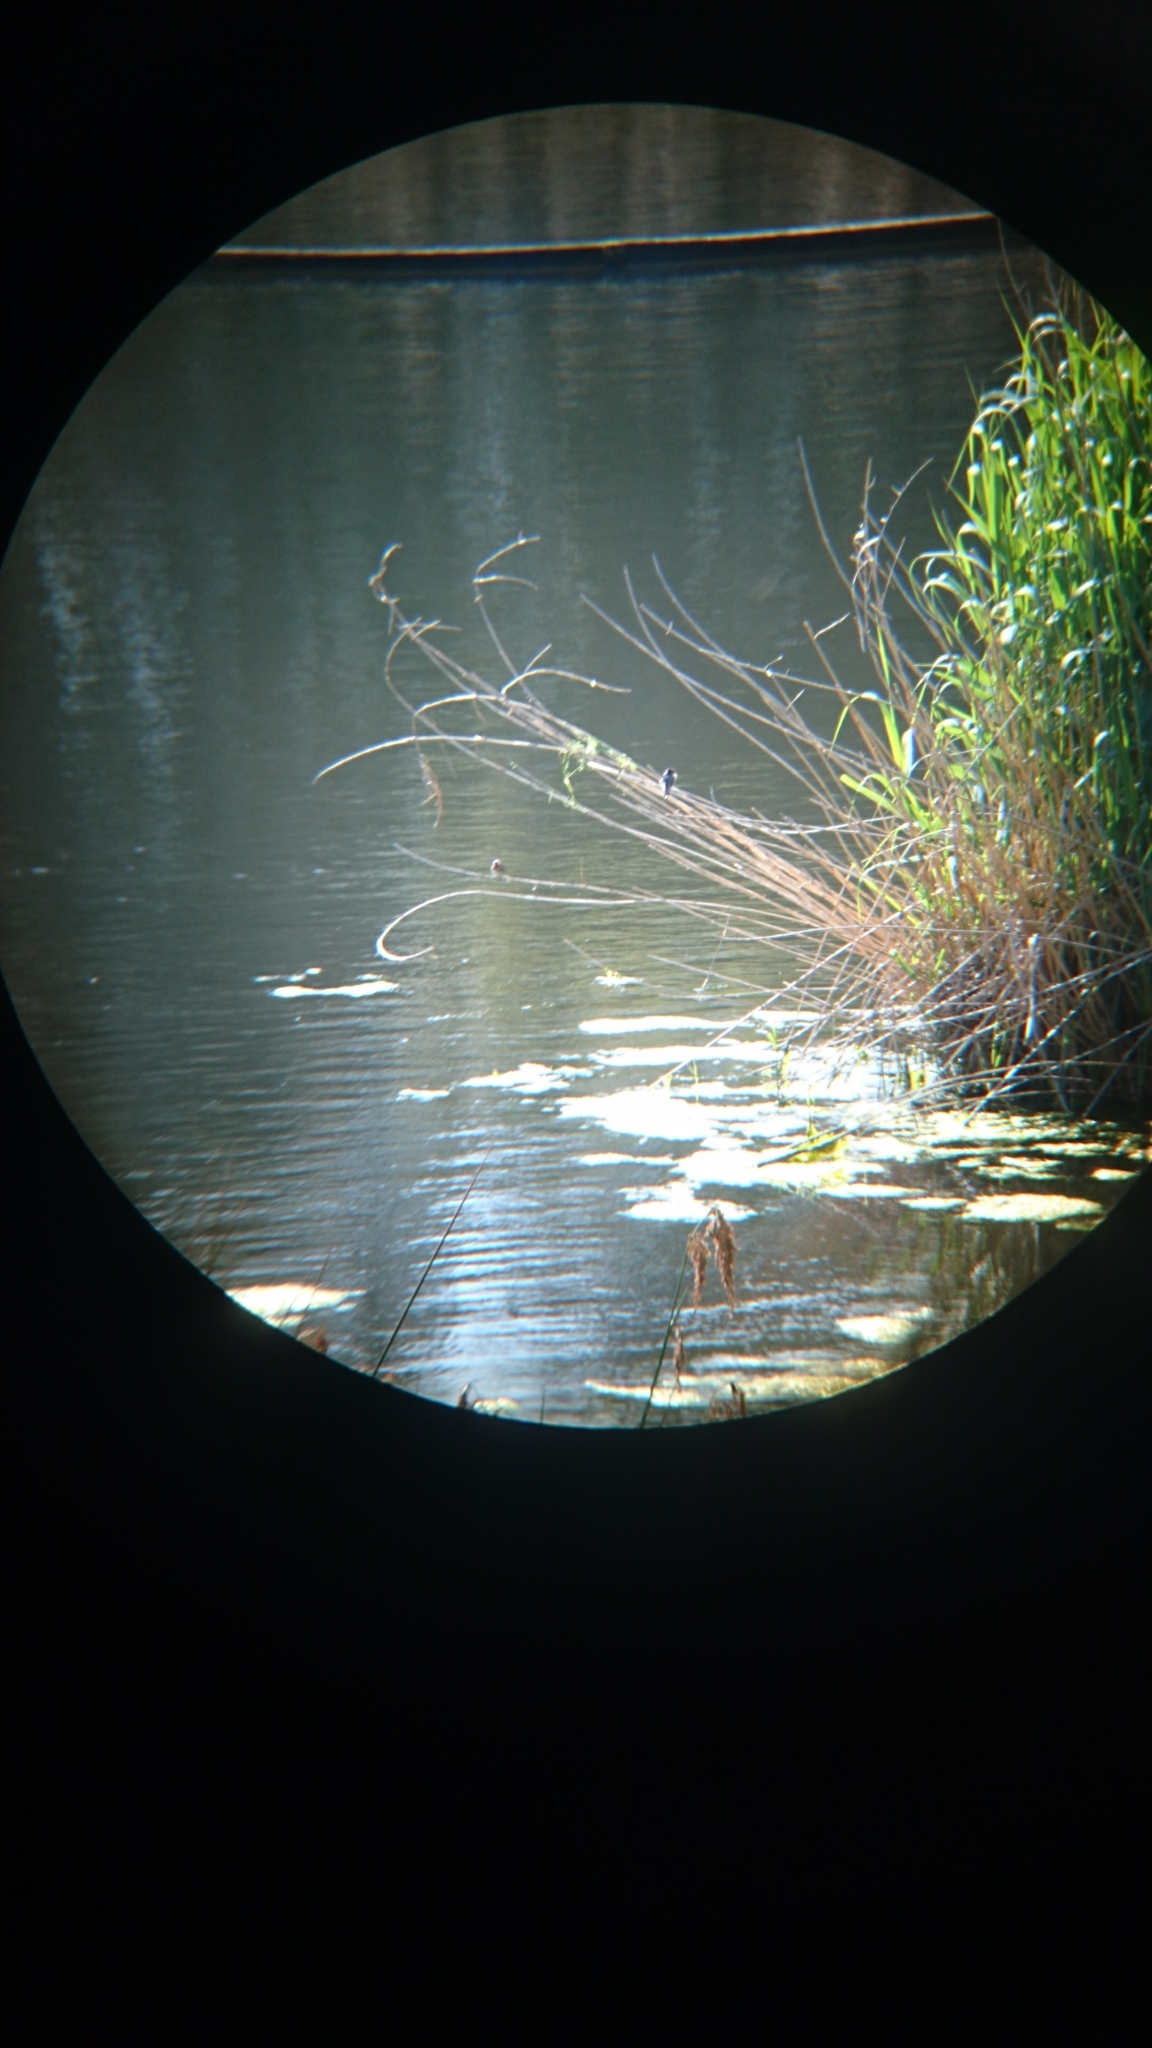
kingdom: Animalia
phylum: Chordata
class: Aves
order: Passeriformes
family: Hirundinidae
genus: Hirundo
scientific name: Hirundo neoxena
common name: Welcome swallow
